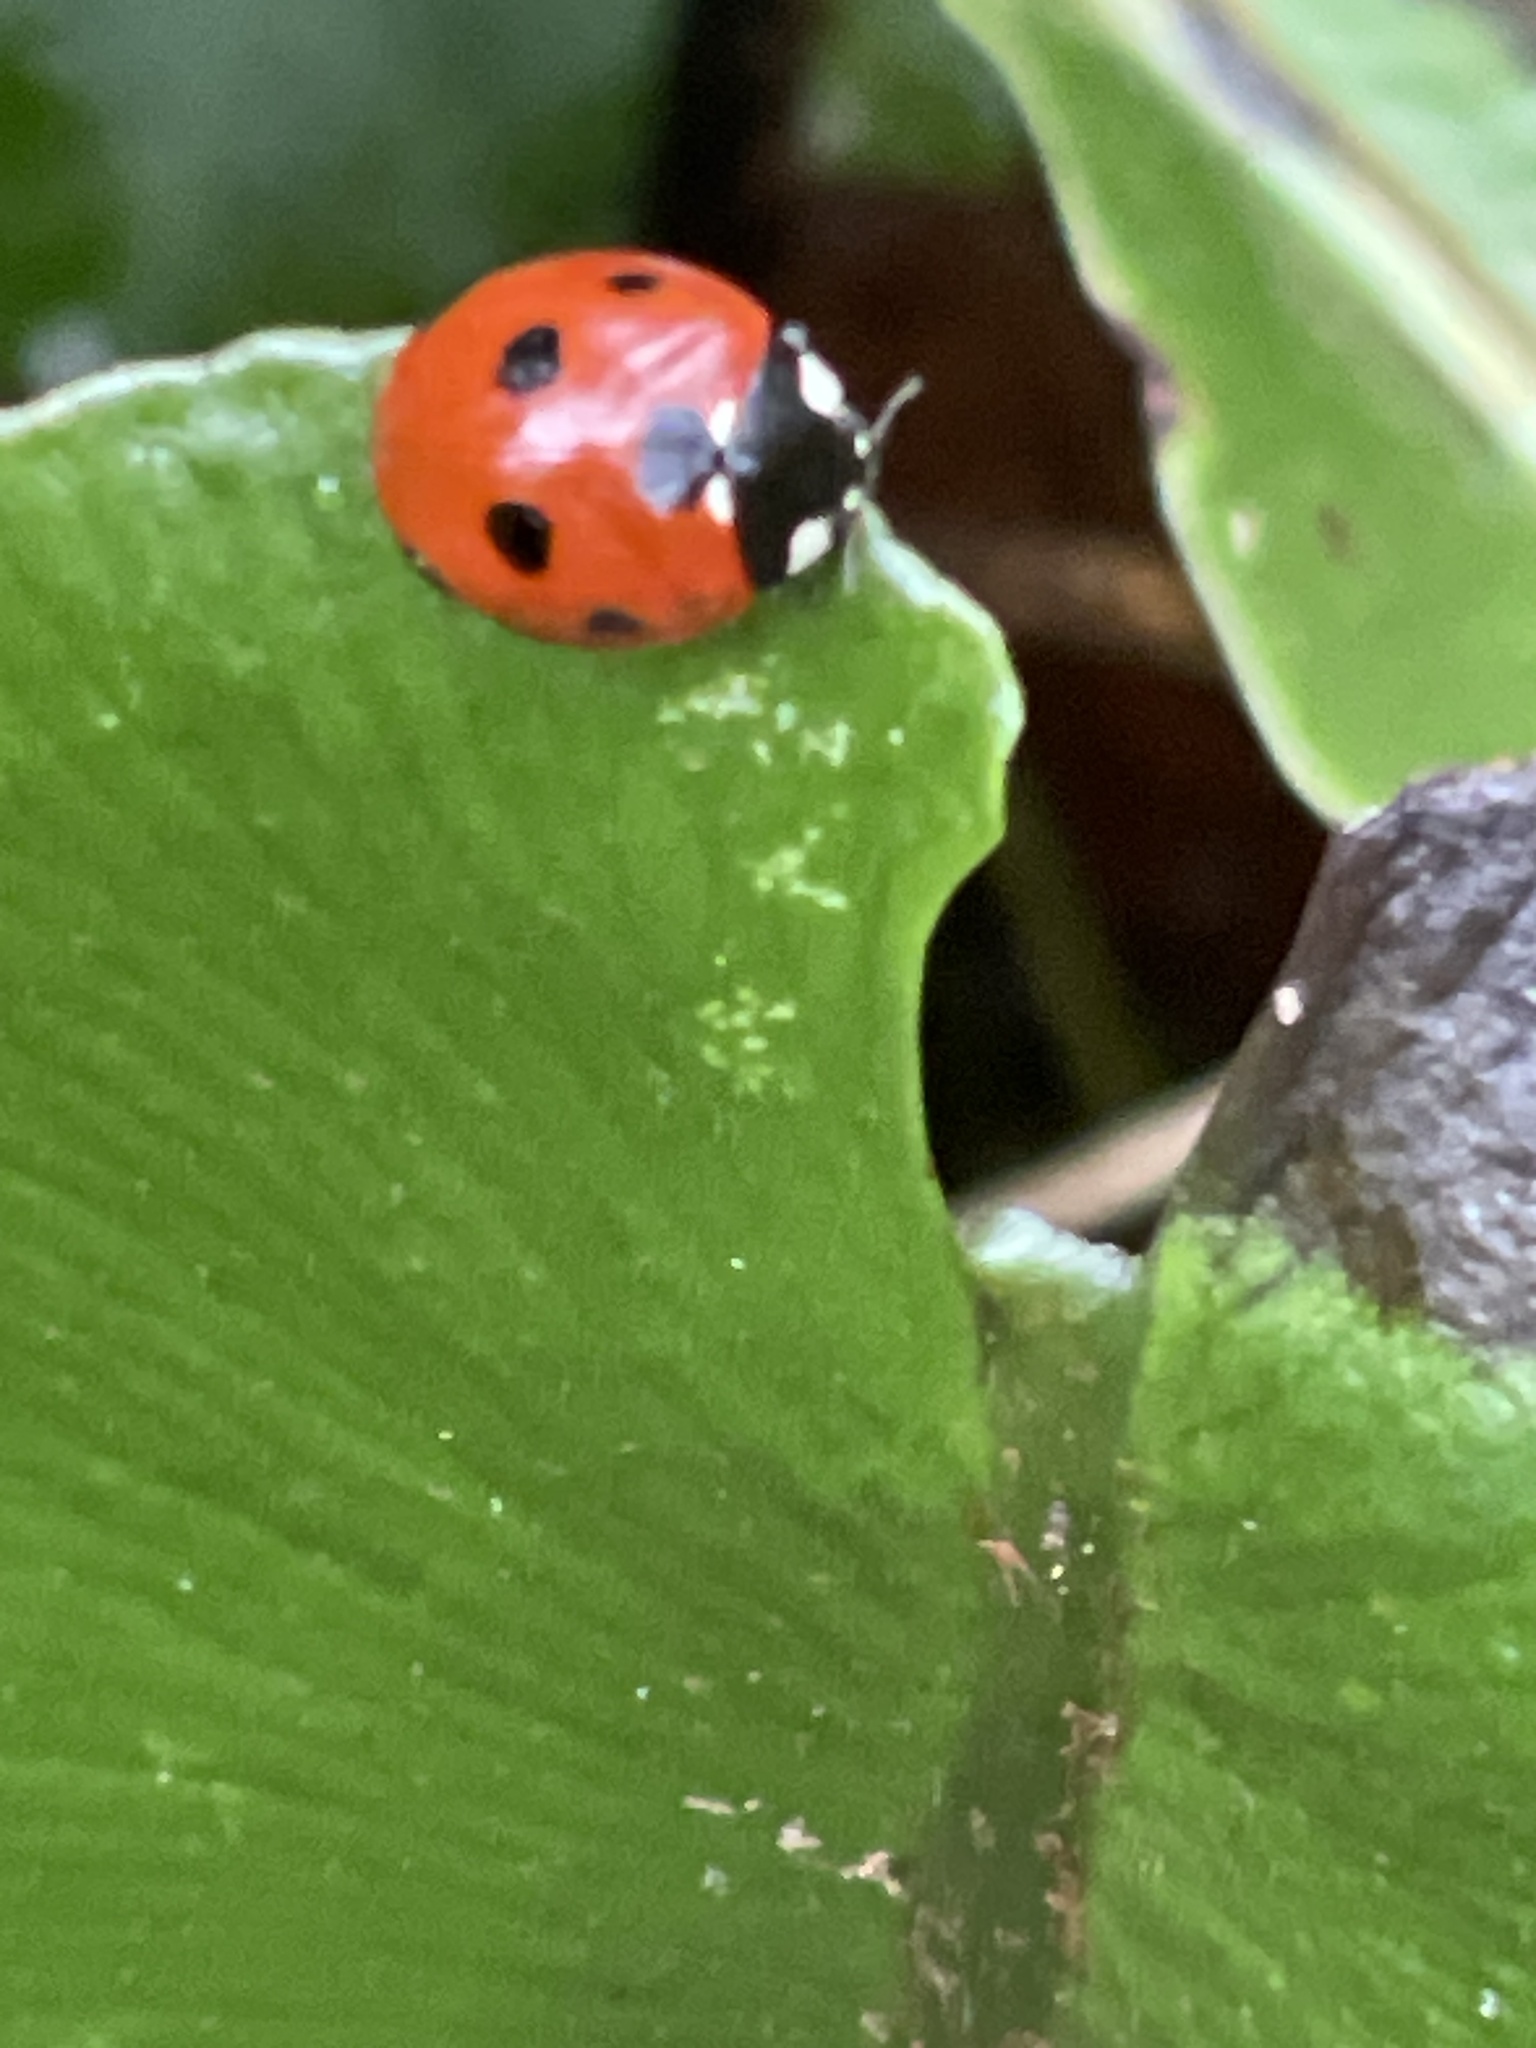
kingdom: Animalia
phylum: Arthropoda
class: Insecta
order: Coleoptera
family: Coccinellidae
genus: Coccinella
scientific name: Coccinella septempunctata
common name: Sevenspotted lady beetle
